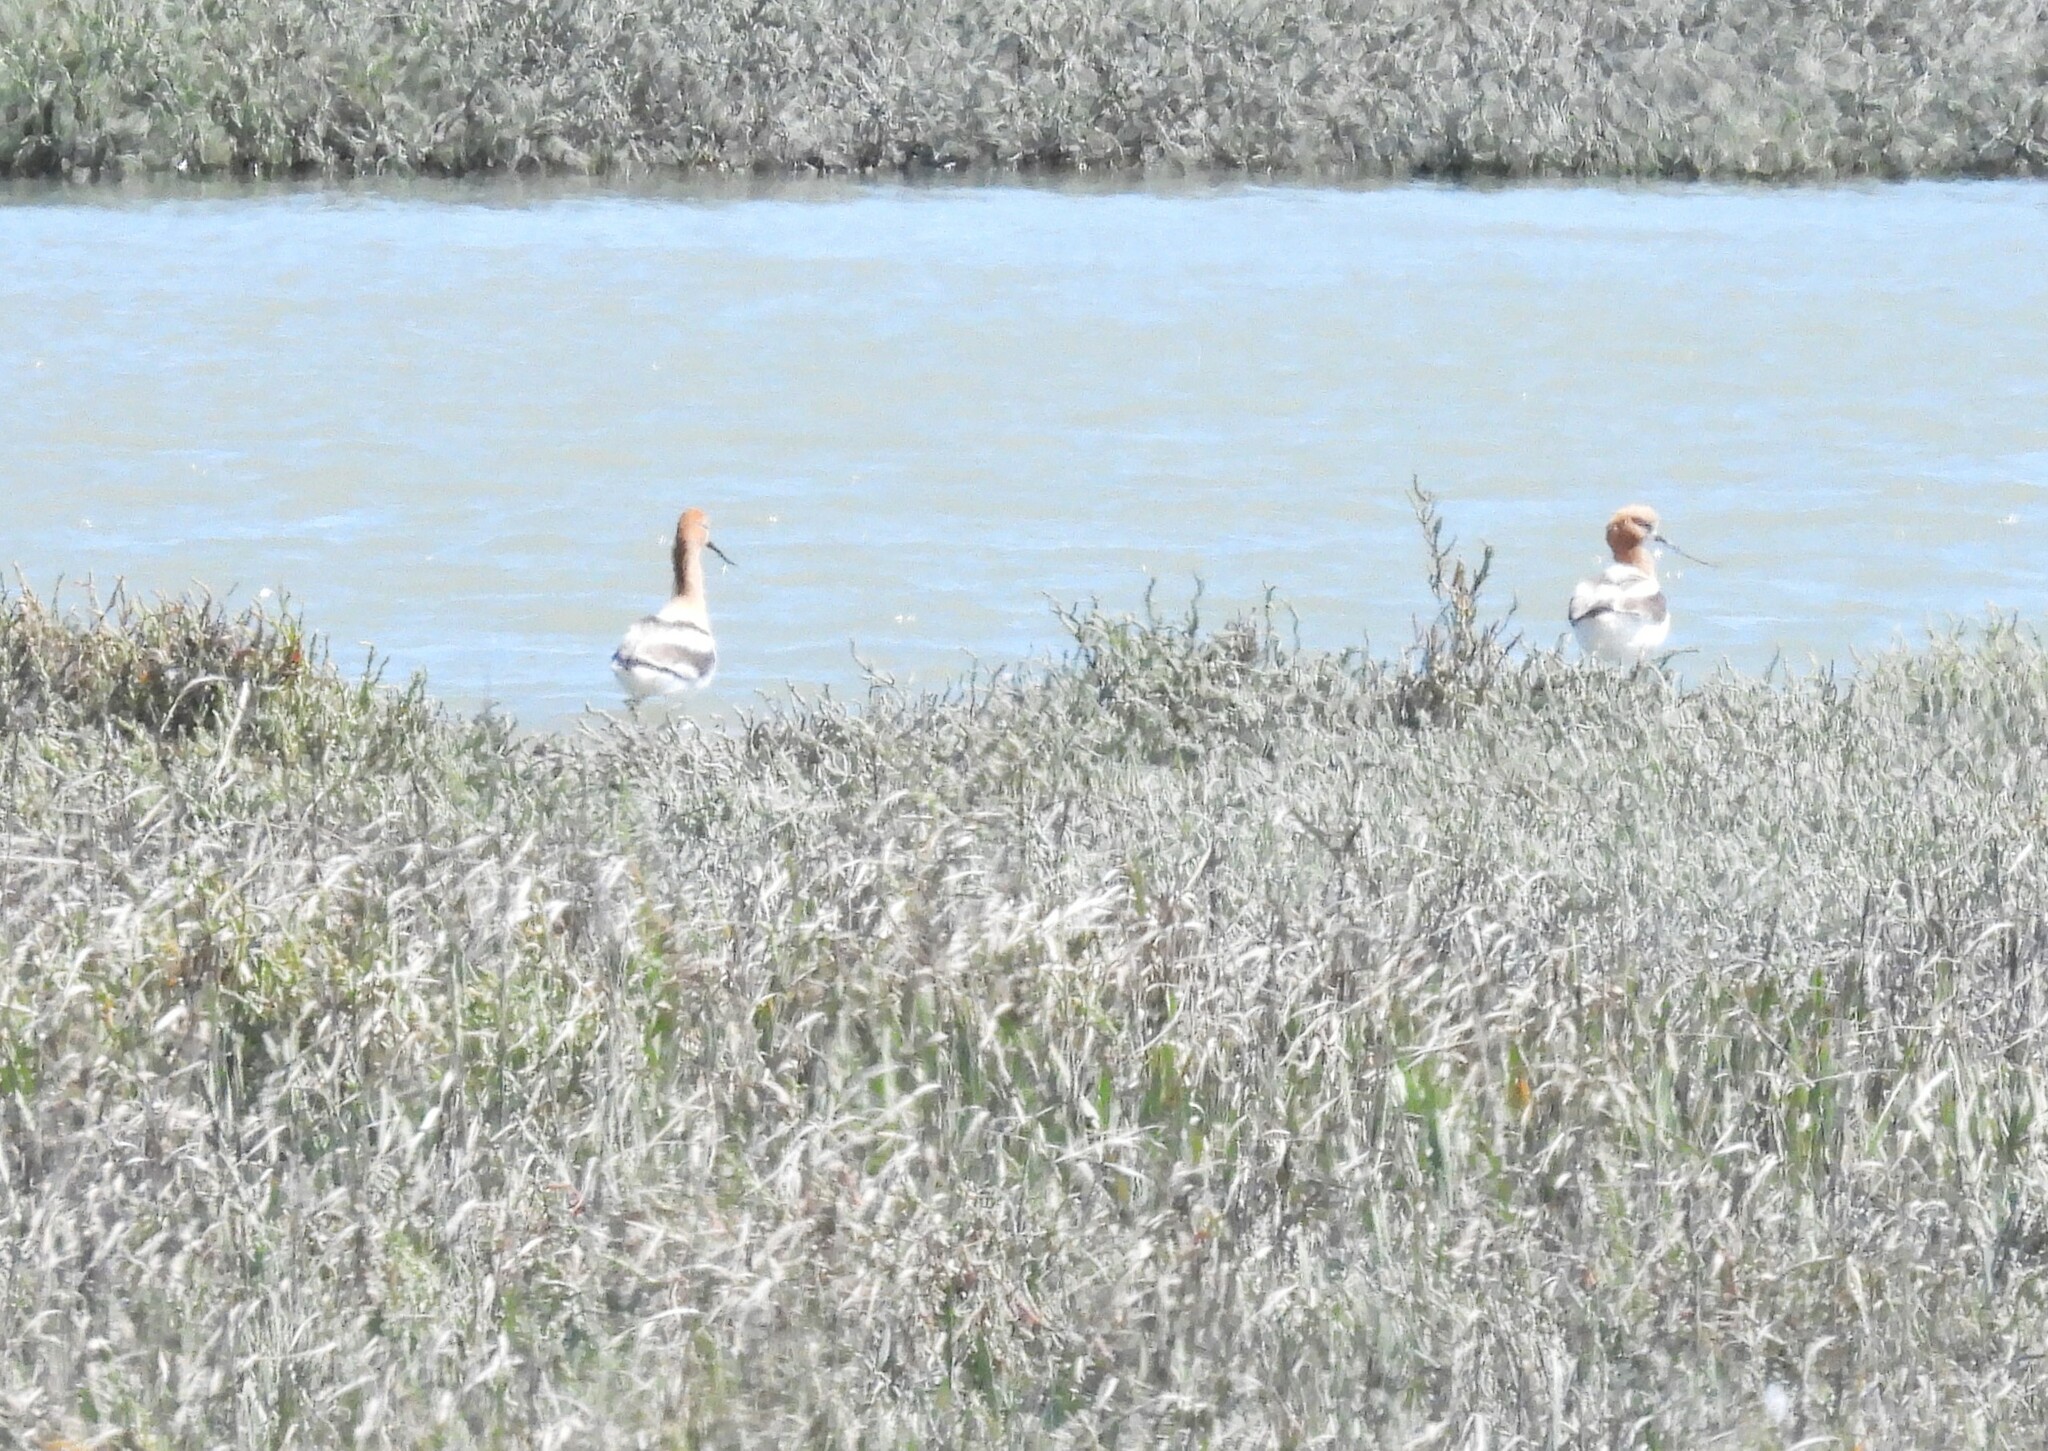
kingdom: Animalia
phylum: Chordata
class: Aves
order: Charadriiformes
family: Recurvirostridae
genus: Recurvirostra
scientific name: Recurvirostra americana
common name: American avocet
